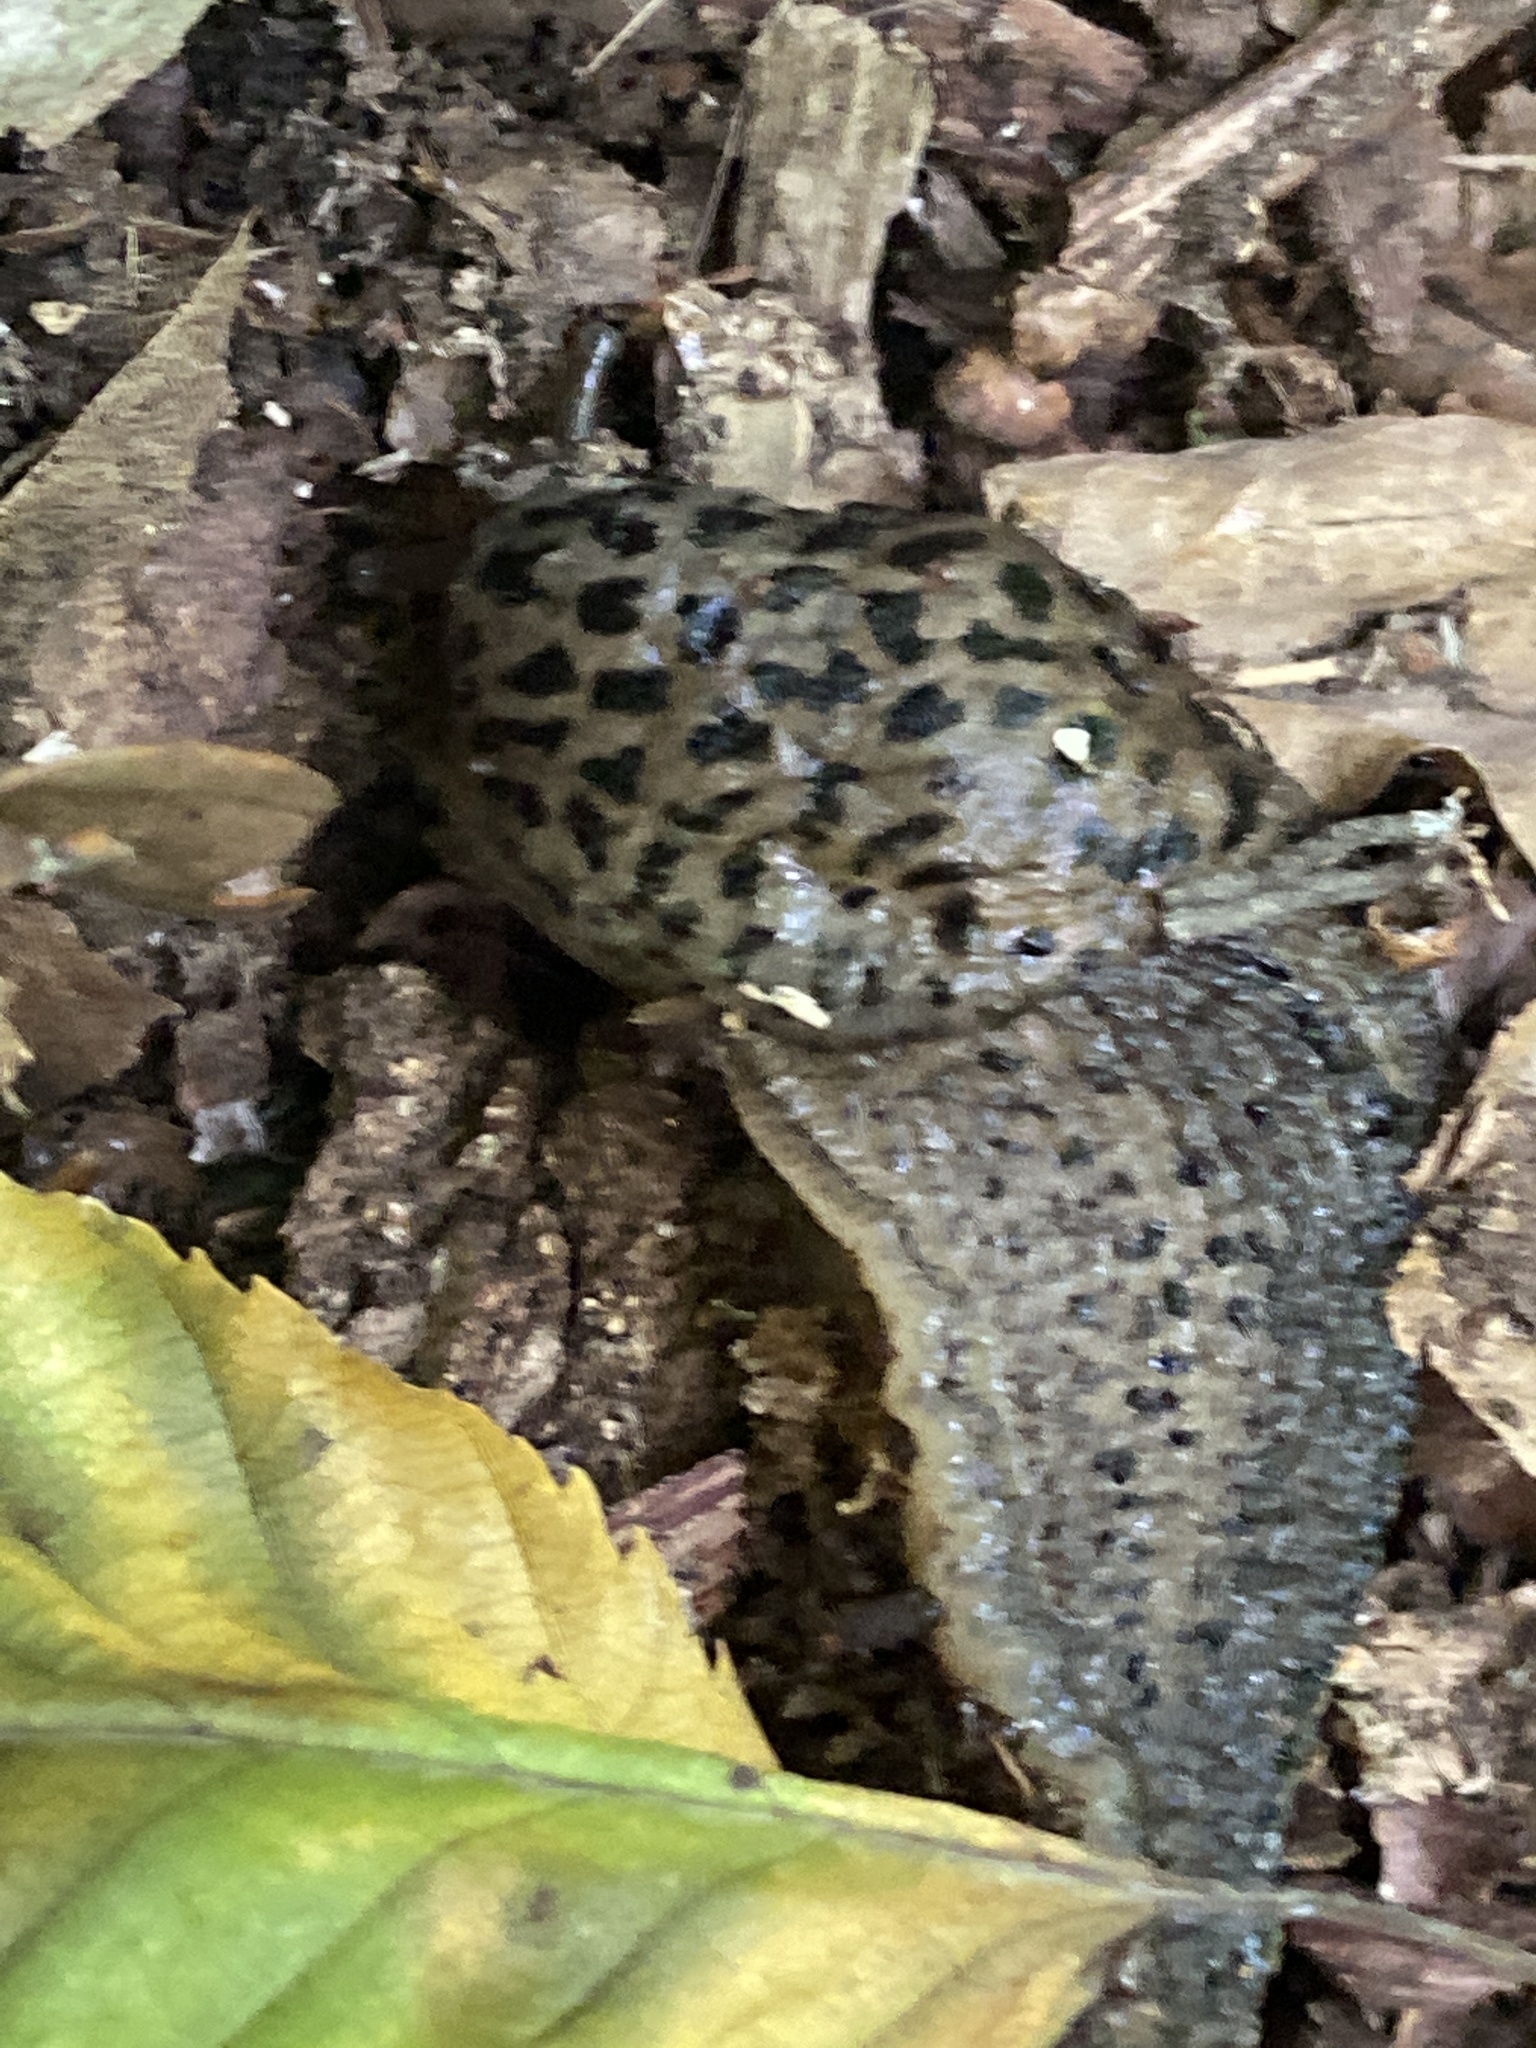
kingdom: Animalia
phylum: Mollusca
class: Gastropoda
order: Stylommatophora
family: Limacidae
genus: Limax
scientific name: Limax maximus
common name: Great grey slug
